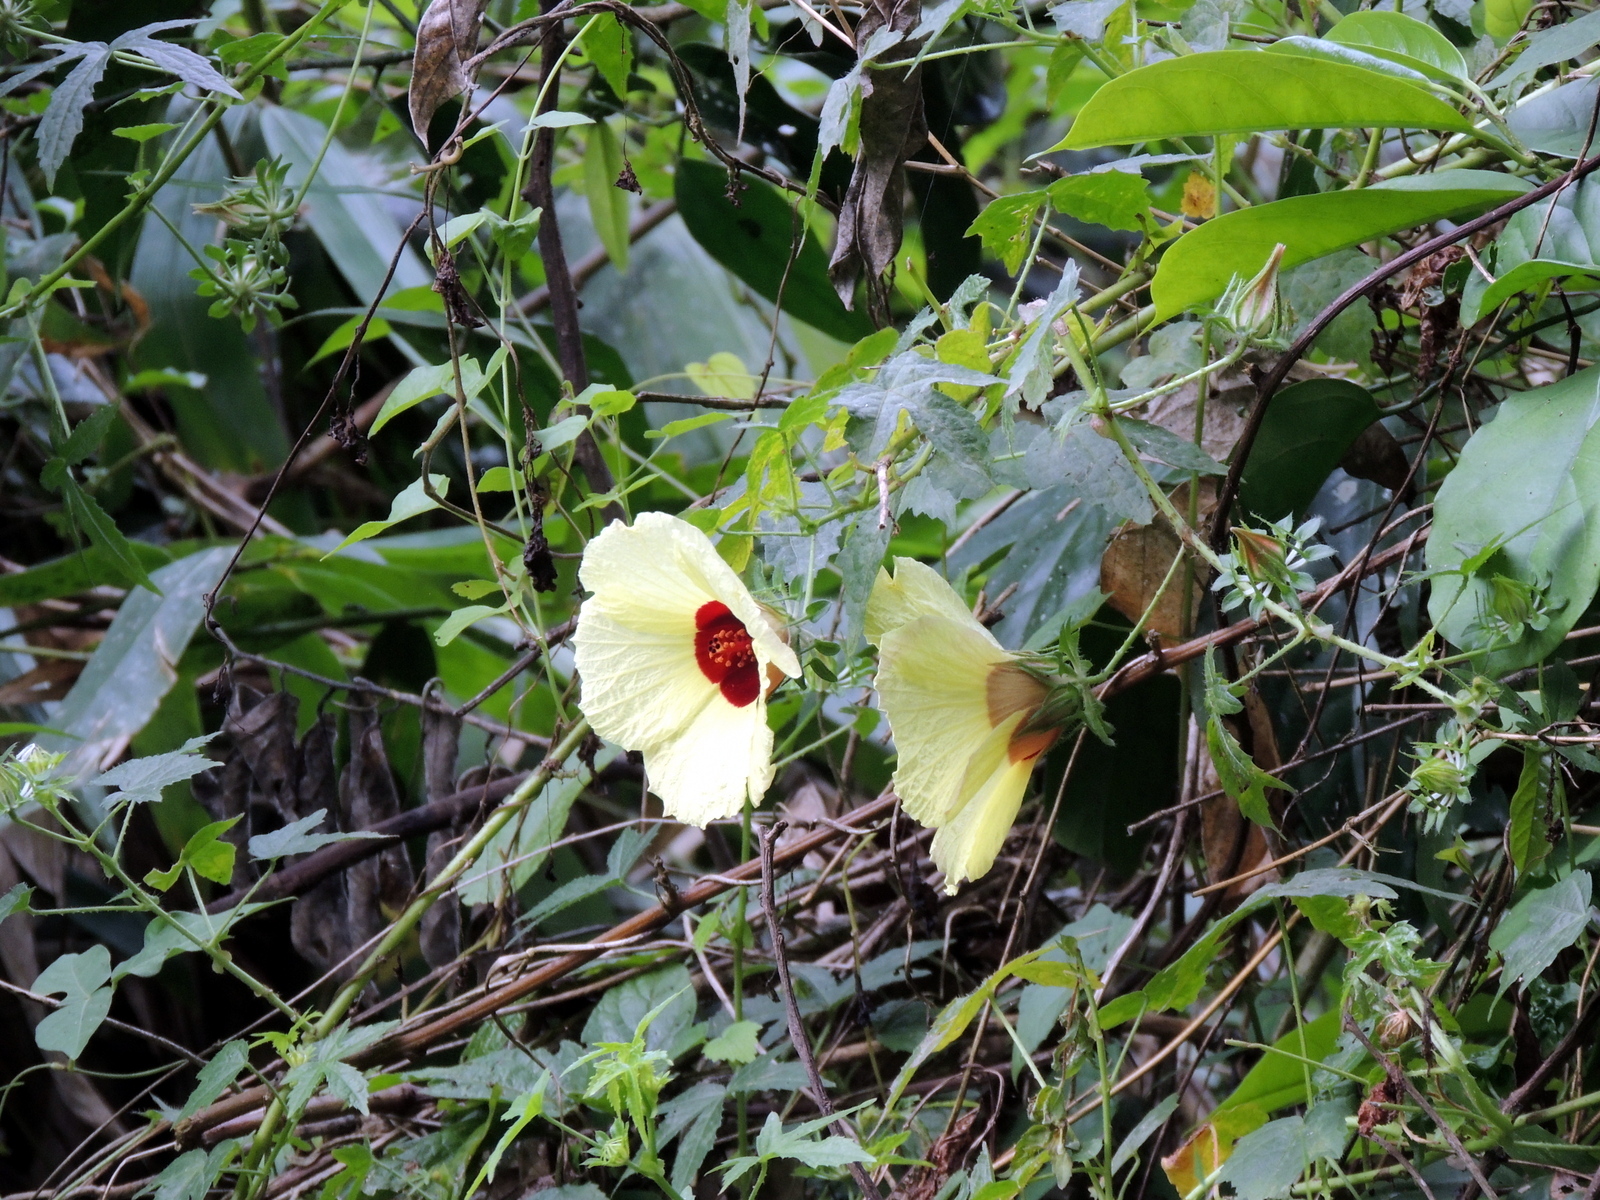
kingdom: Plantae
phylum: Tracheophyta
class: Magnoliopsida
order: Malvales
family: Malvaceae
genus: Hibiscus
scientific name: Hibiscus surattensis
